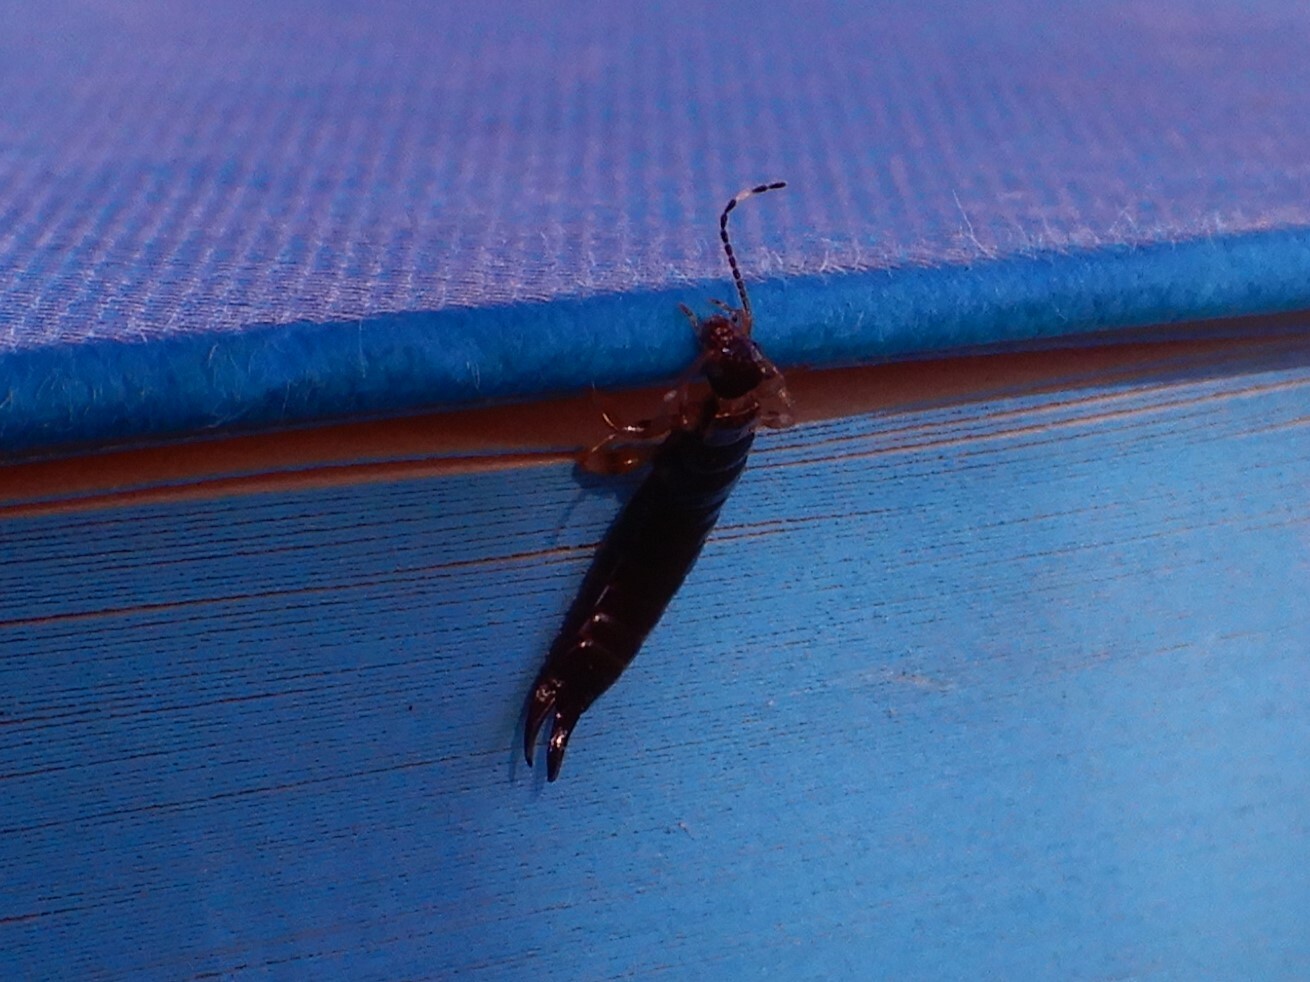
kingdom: Animalia
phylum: Arthropoda
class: Insecta
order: Dermaptera
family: Anisolabididae
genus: Euborellia
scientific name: Euborellia annulipes
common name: Ringlegged earwig
